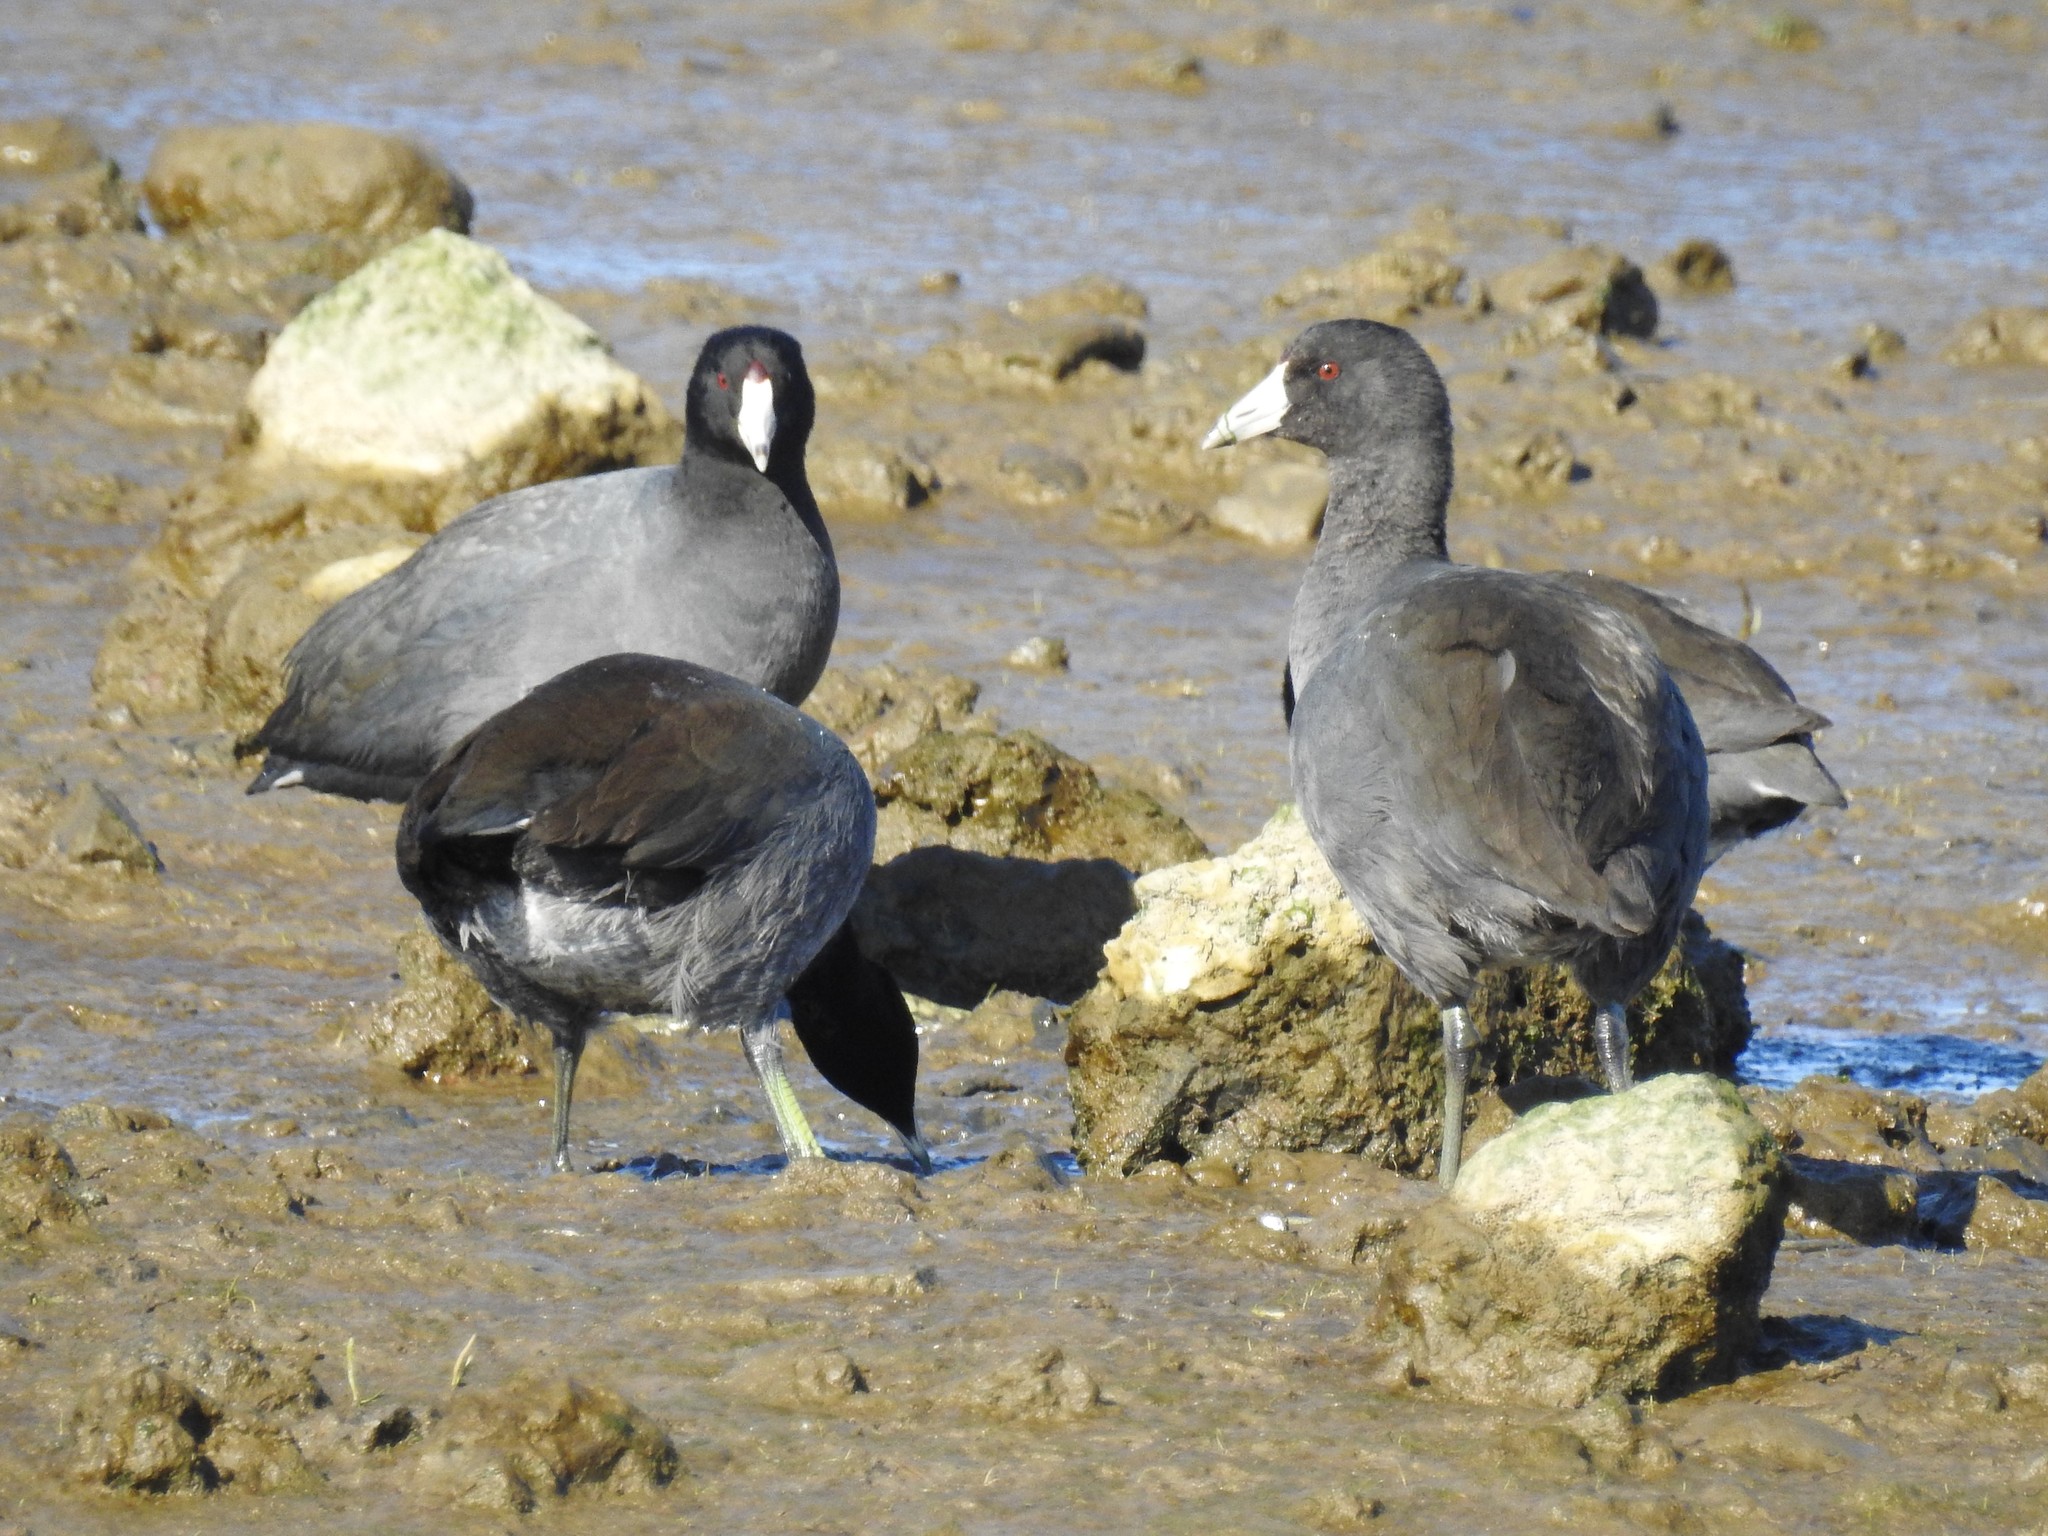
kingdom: Animalia
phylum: Chordata
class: Aves
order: Gruiformes
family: Rallidae
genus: Fulica
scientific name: Fulica americana
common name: American coot
